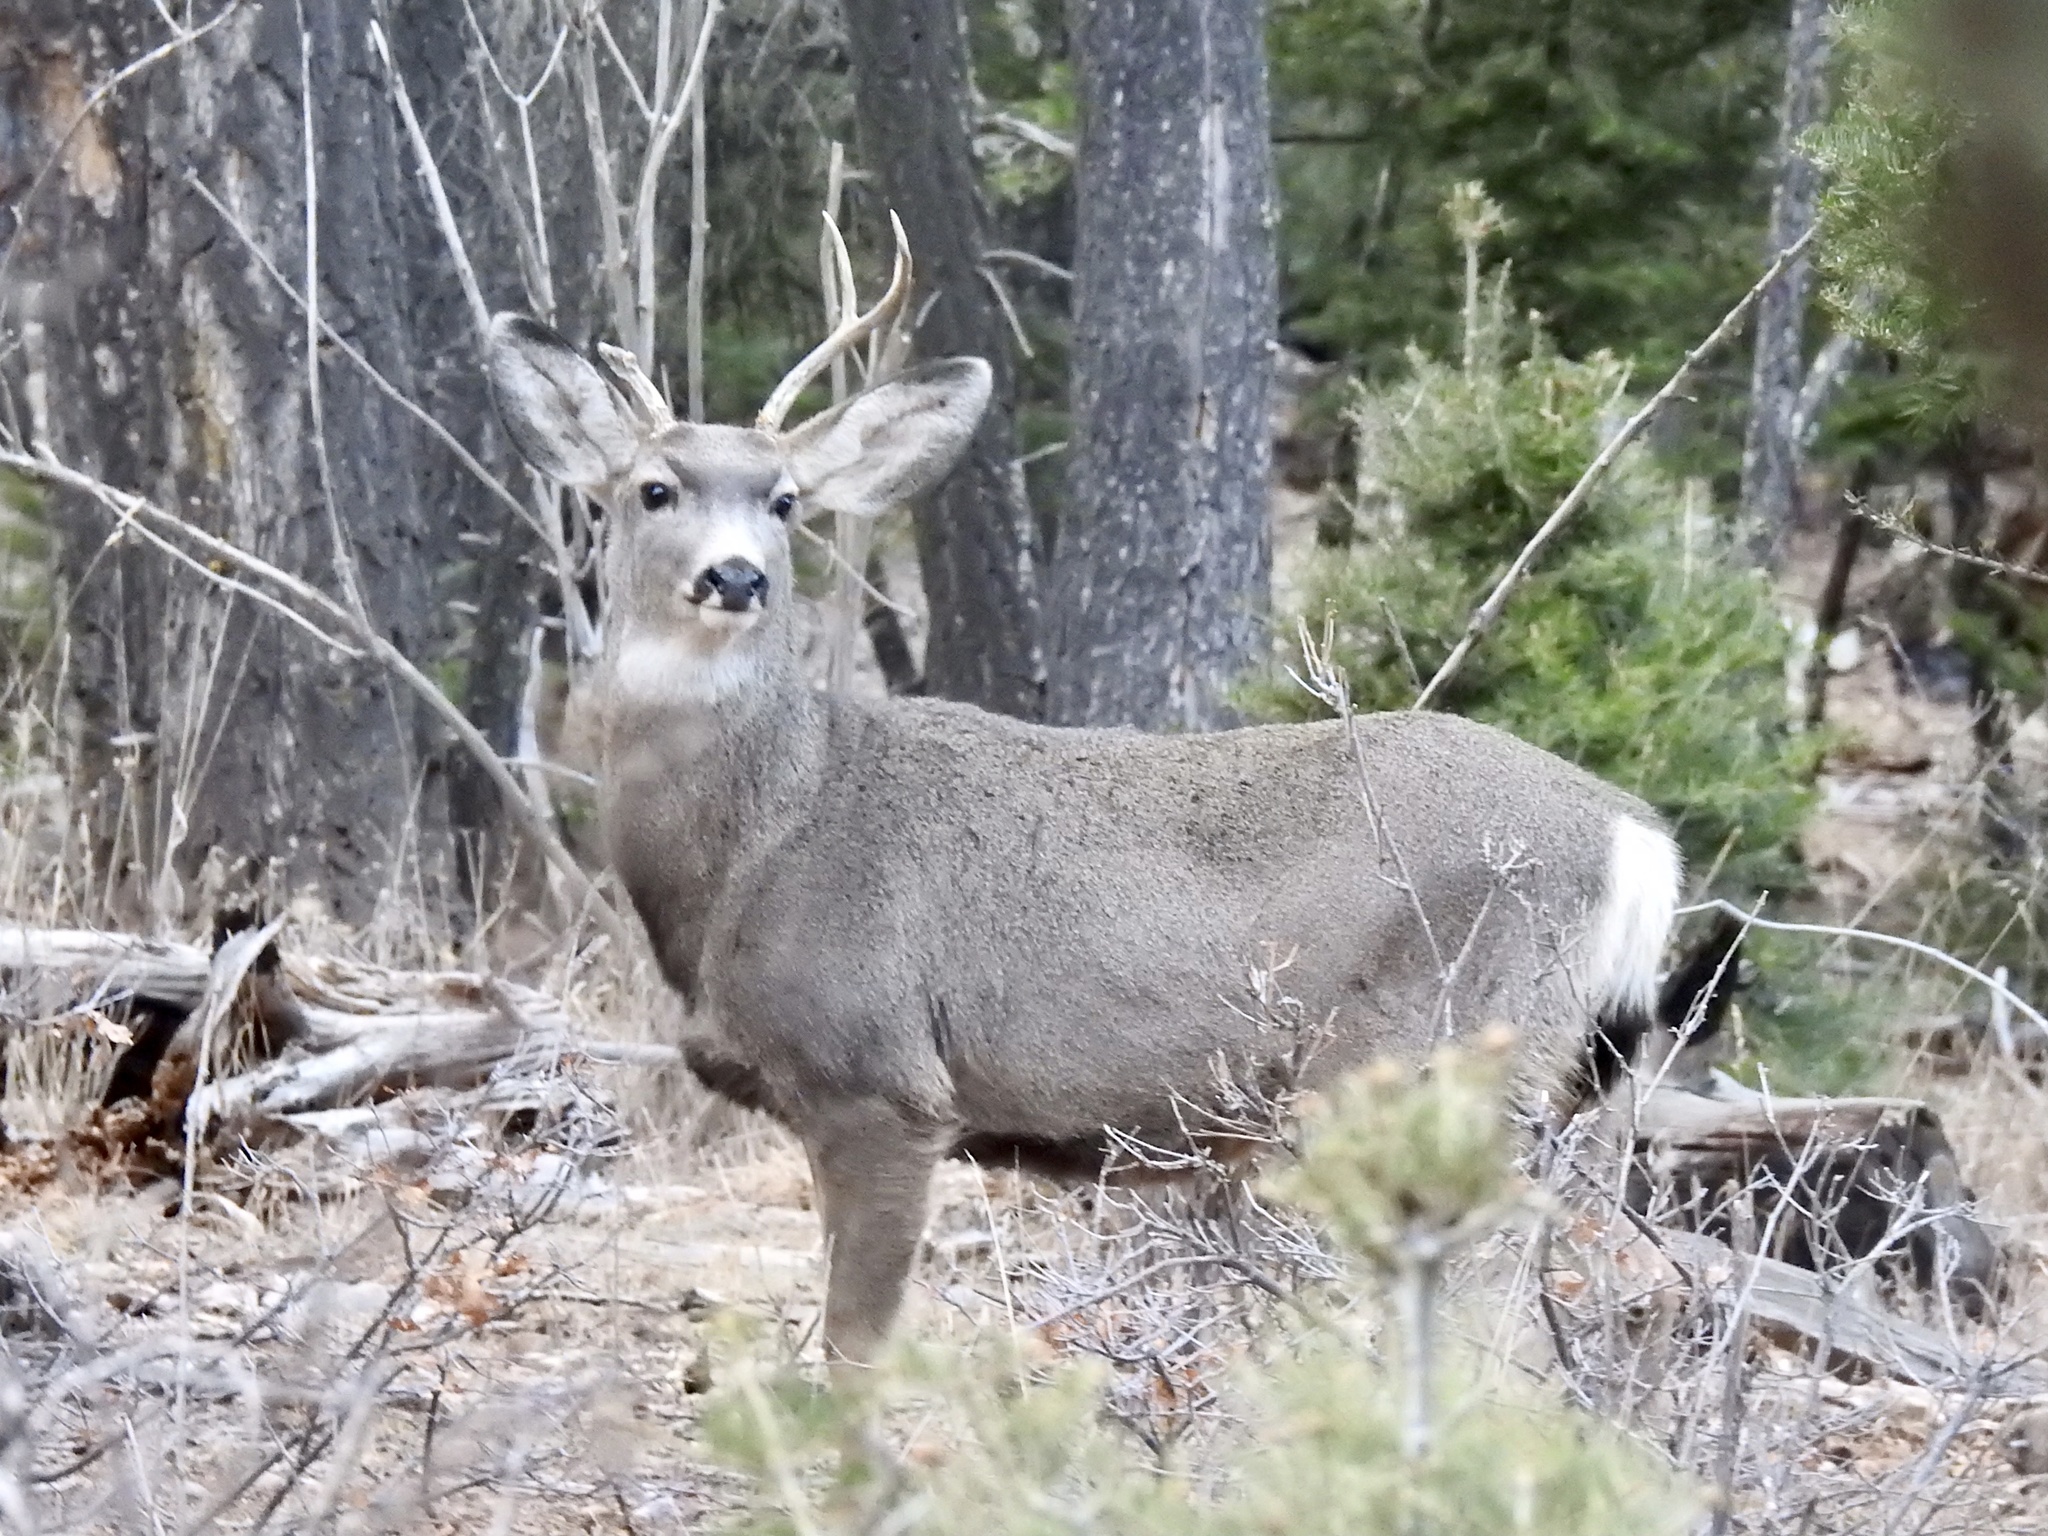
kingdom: Animalia
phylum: Chordata
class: Mammalia
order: Artiodactyla
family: Cervidae
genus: Odocoileus
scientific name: Odocoileus hemionus
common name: Mule deer
